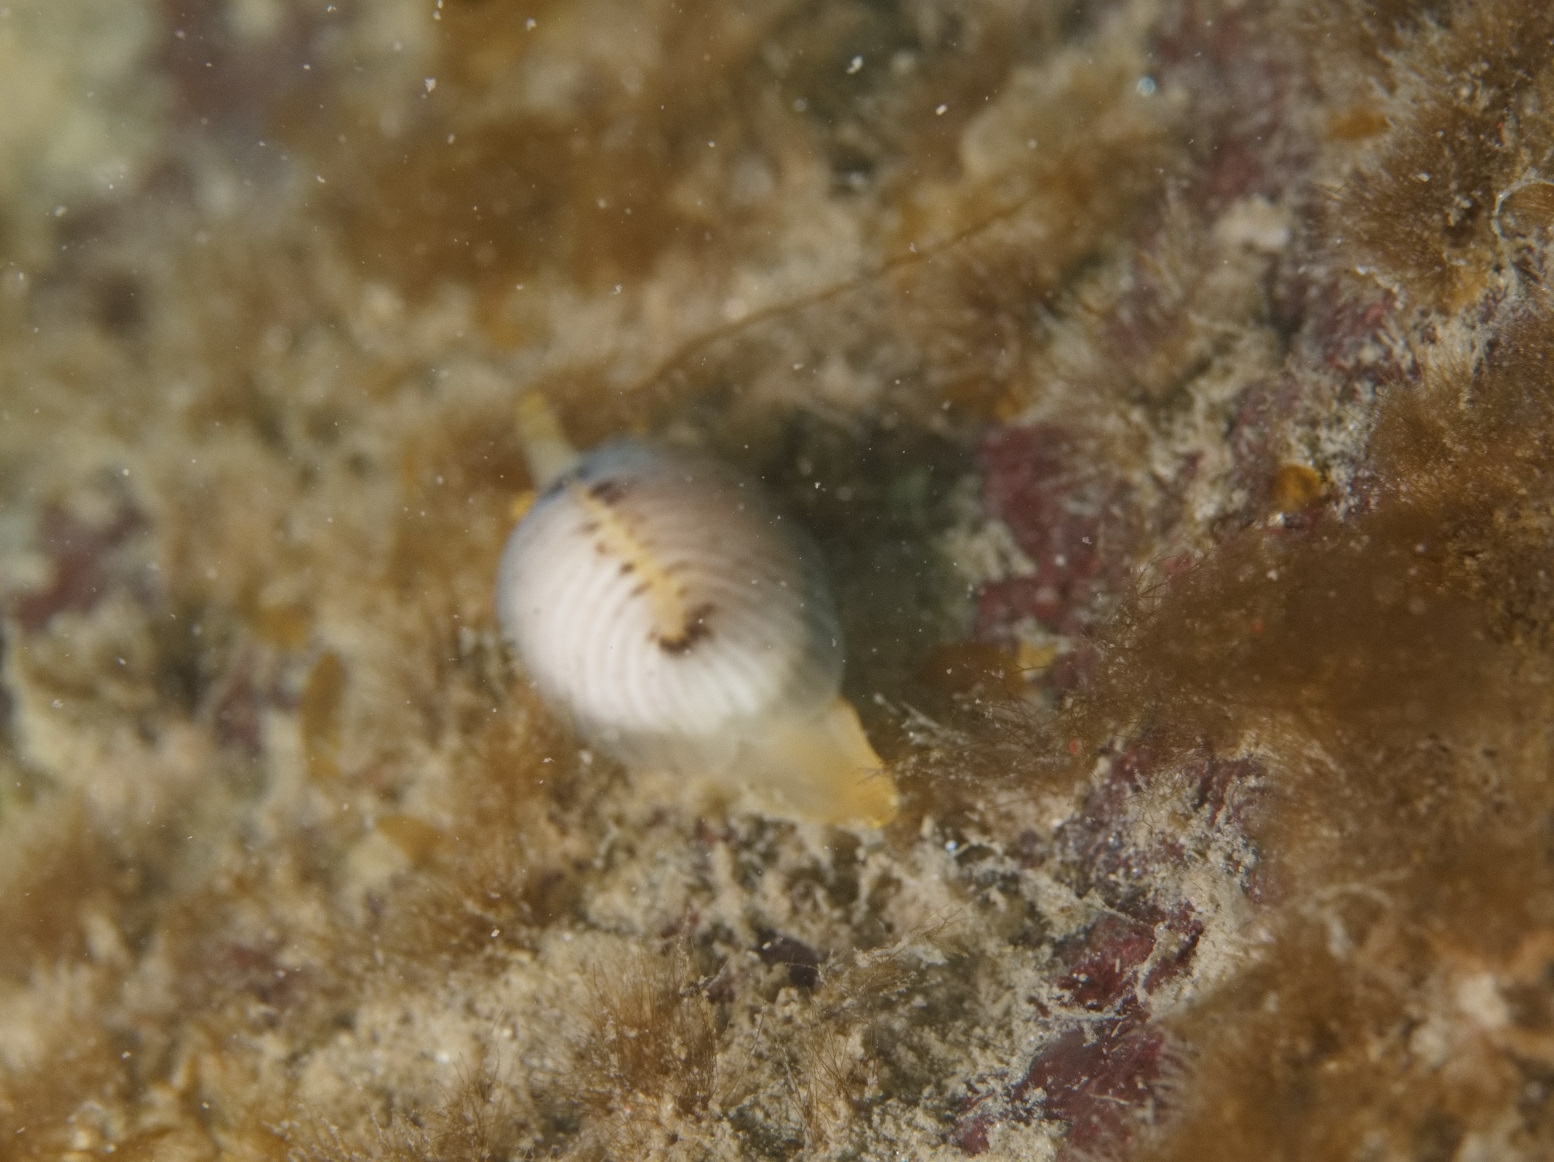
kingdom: Animalia
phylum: Mollusca
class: Gastropoda
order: Littorinimorpha
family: Triviidae
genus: Trivia
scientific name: Trivia arctica
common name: Arctic cowrie
